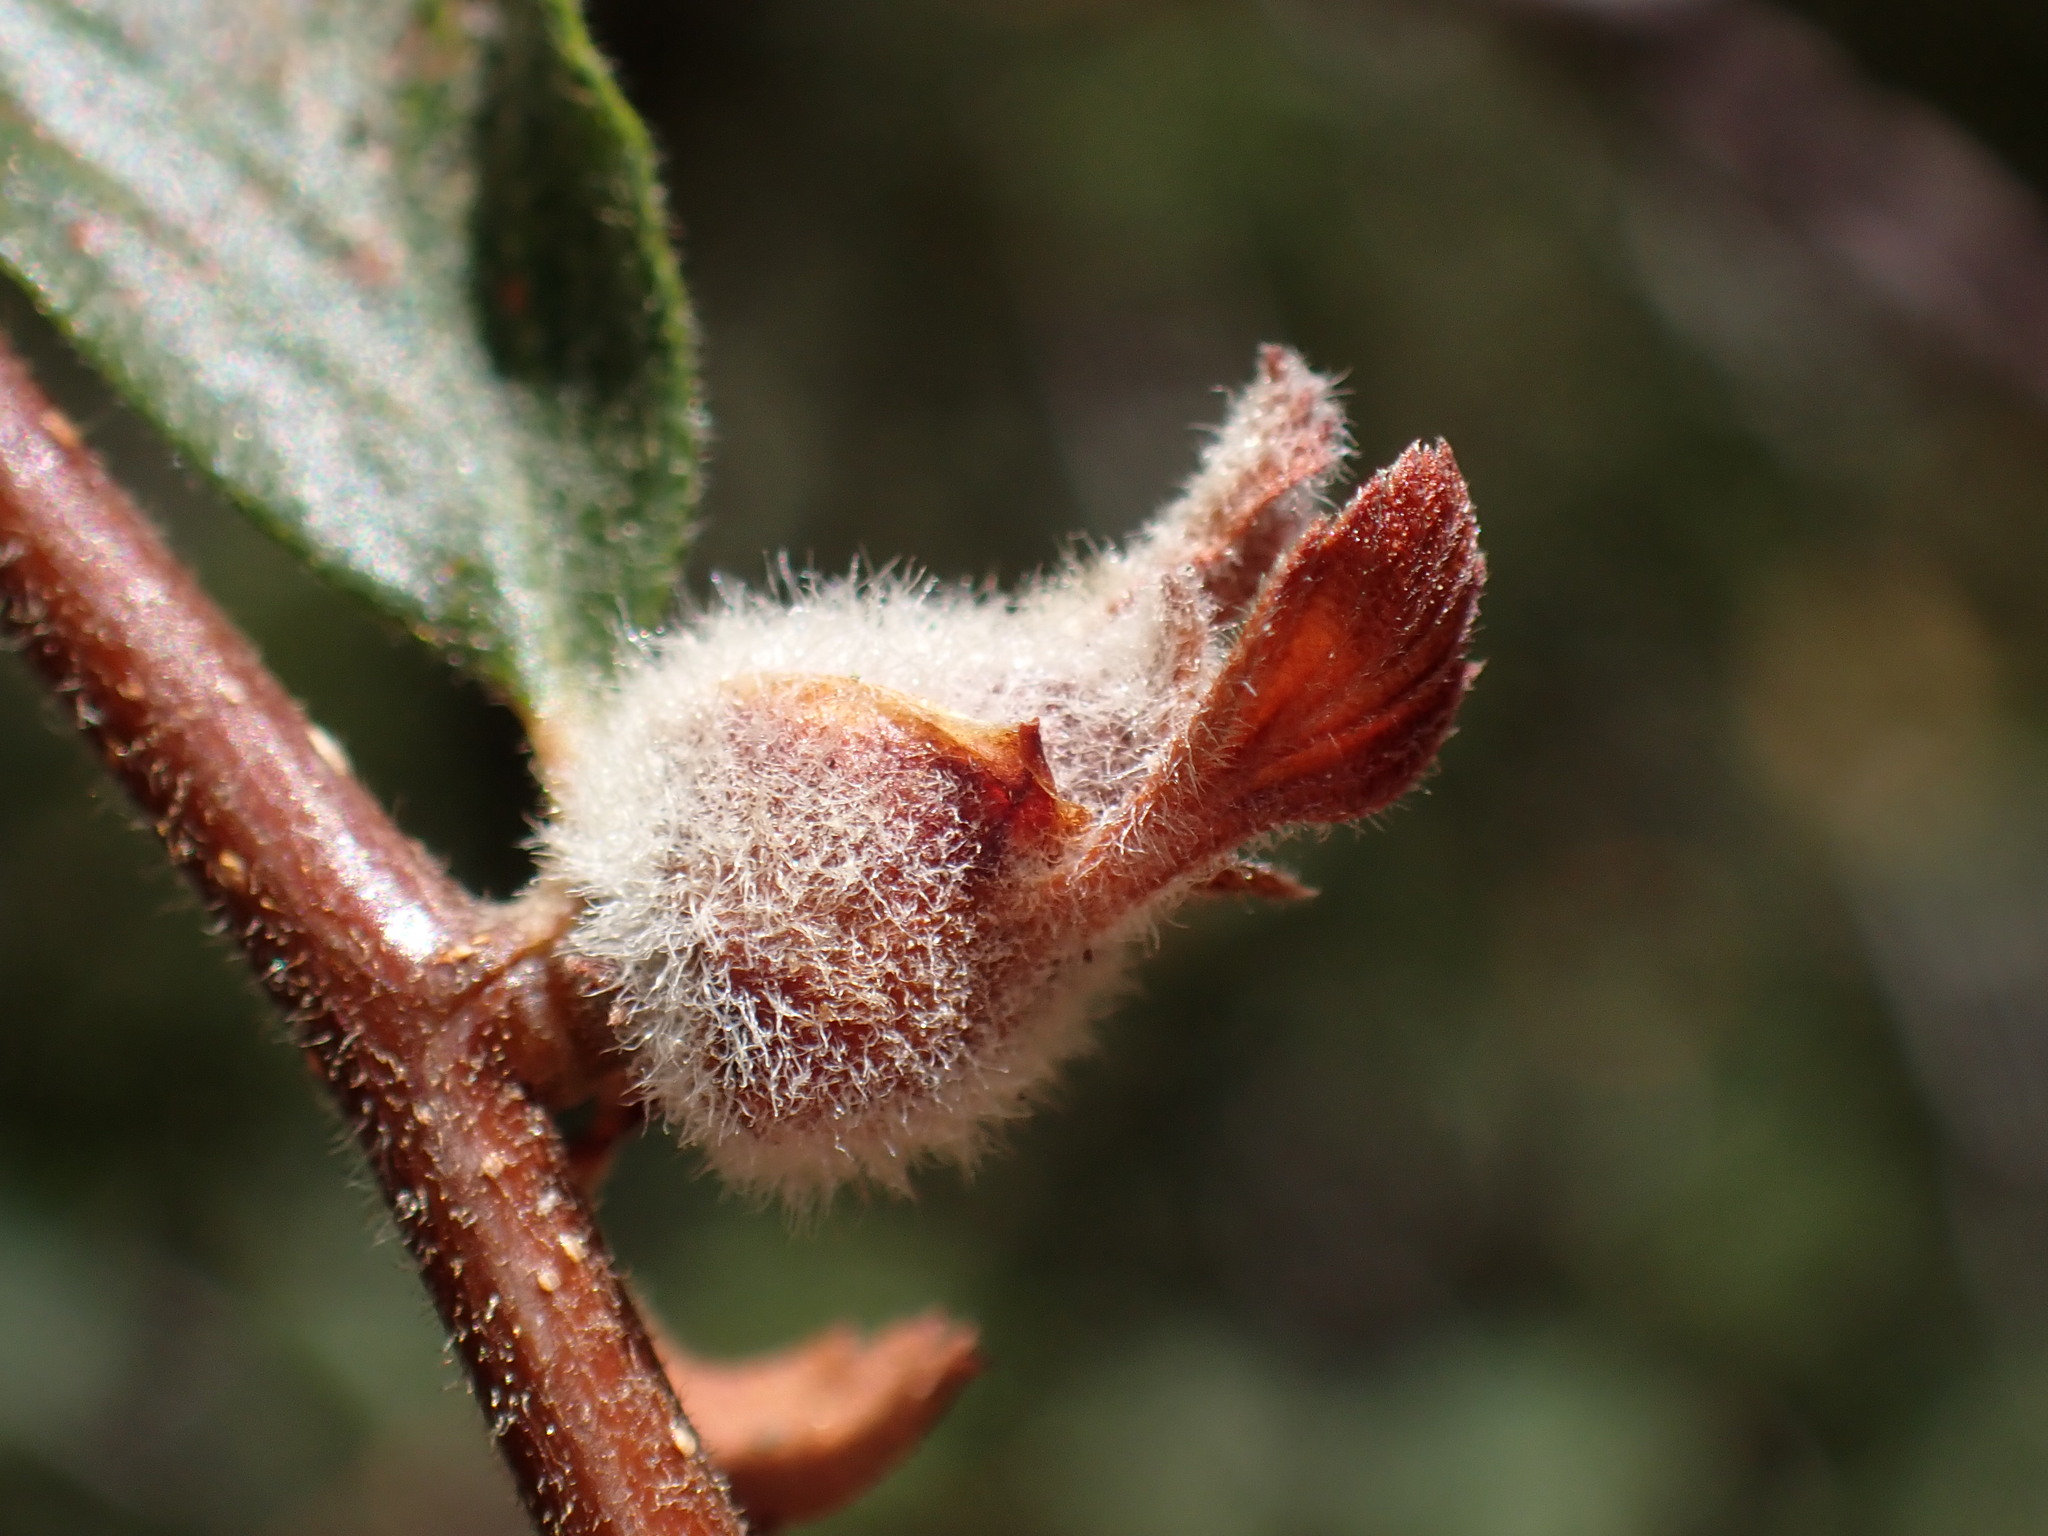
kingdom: Animalia
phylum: Arthropoda
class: Insecta
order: Diptera
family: Cecidomyiidae
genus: Dasineura
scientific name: Dasineura cercocarpi
